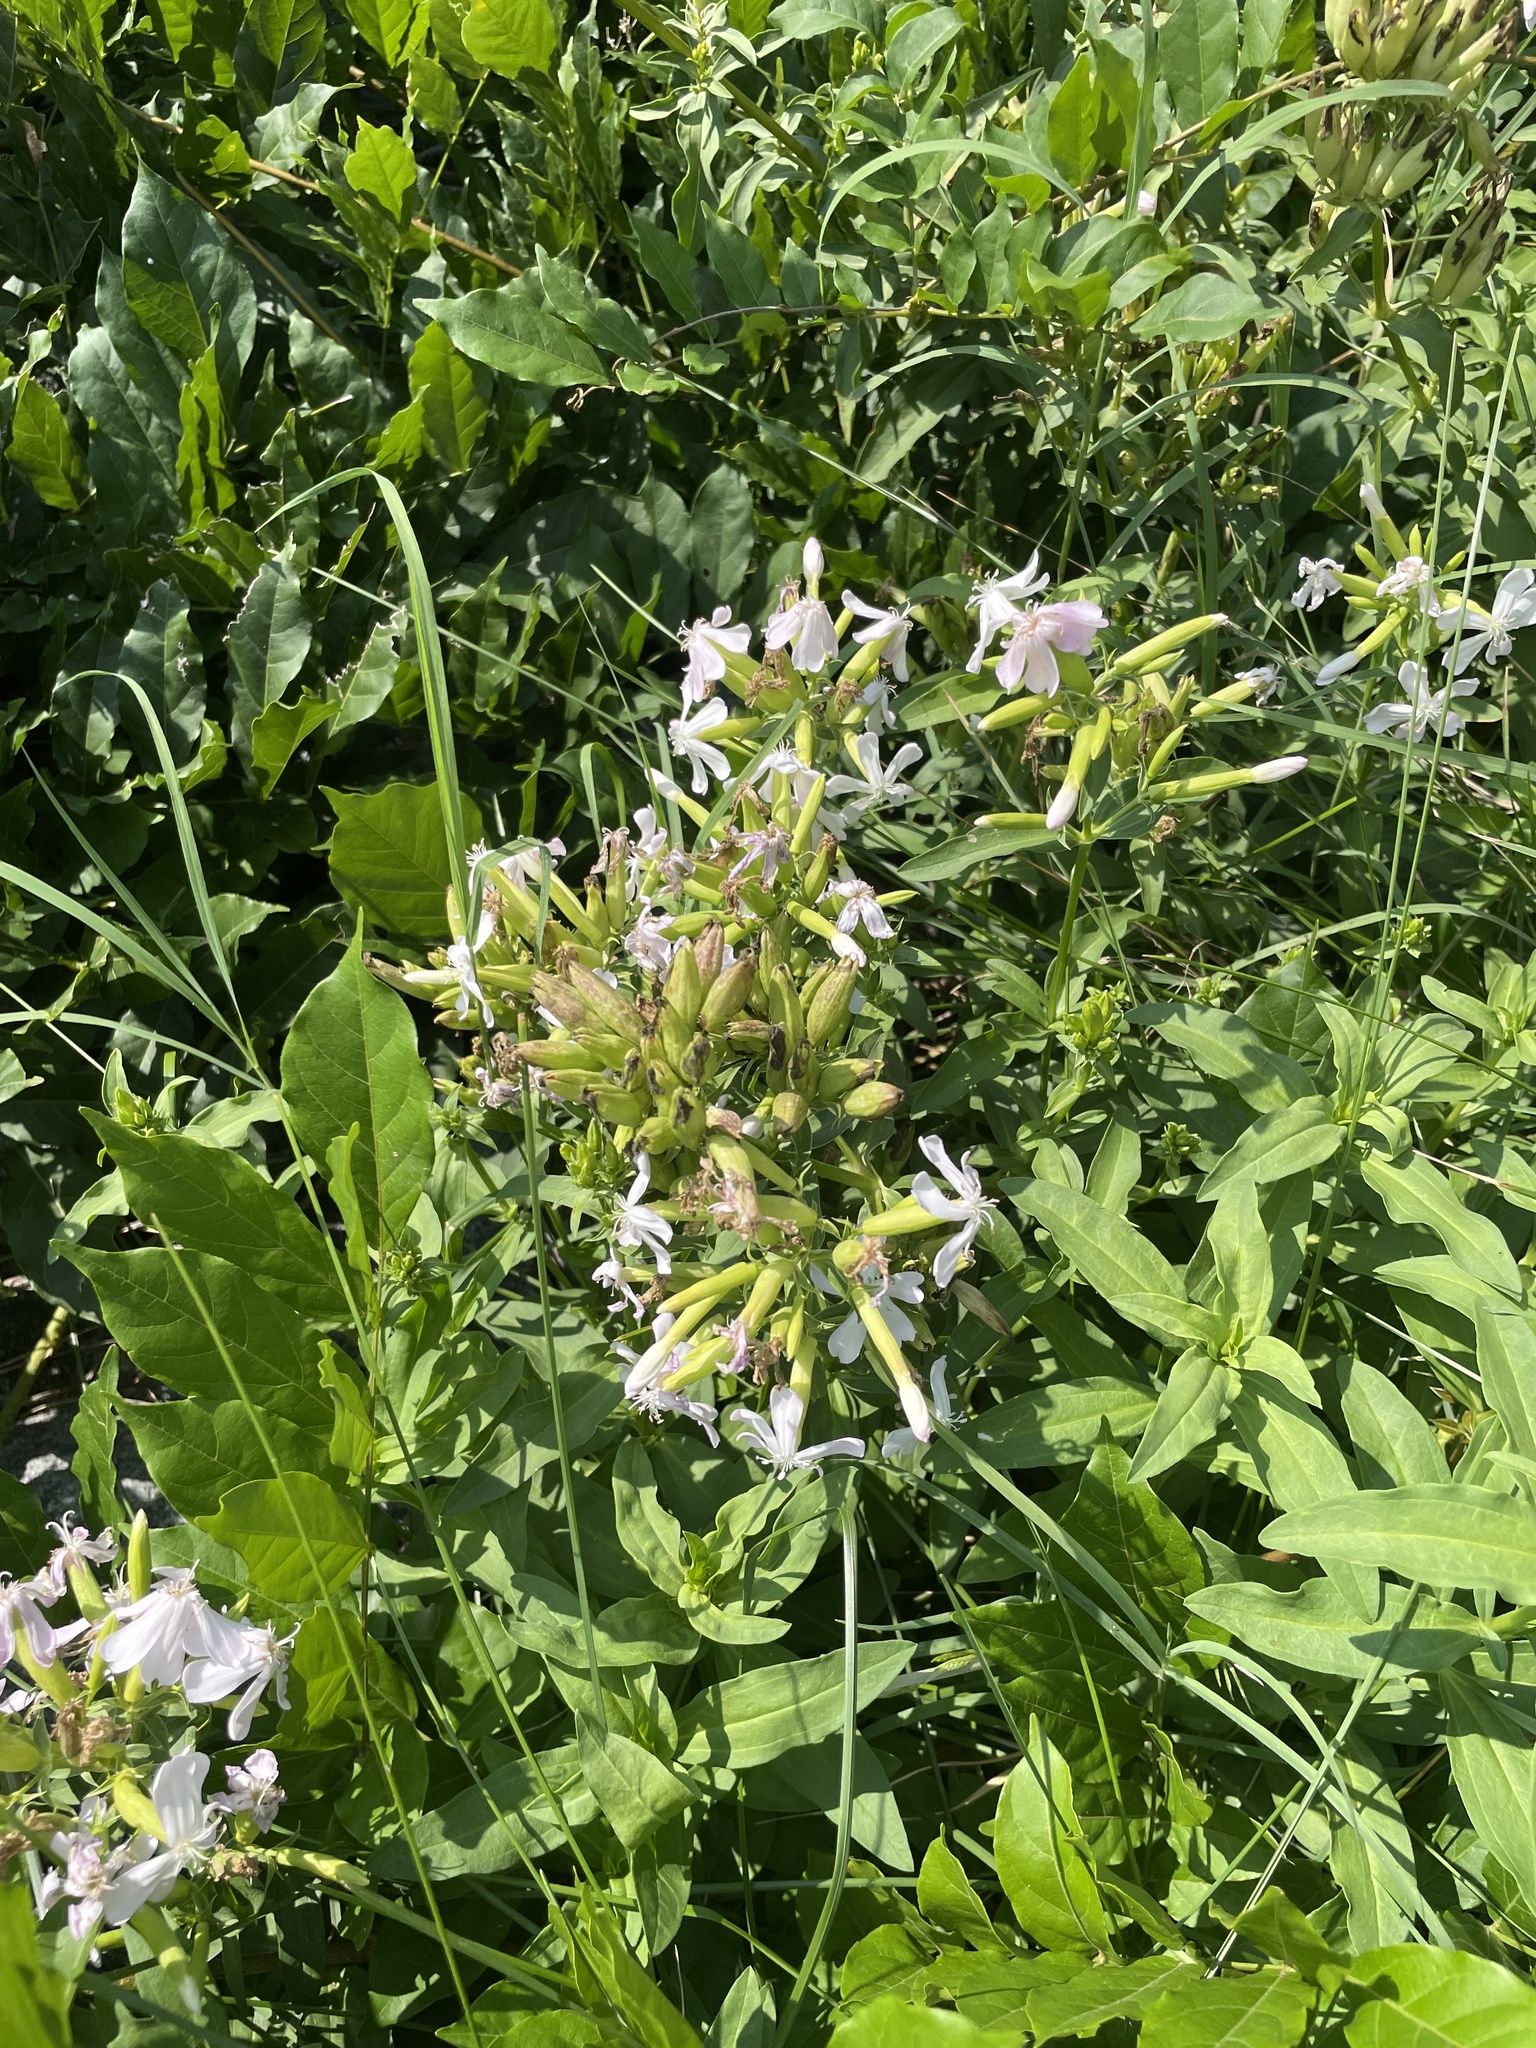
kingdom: Plantae
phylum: Tracheophyta
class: Magnoliopsida
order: Caryophyllales
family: Caryophyllaceae
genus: Saponaria
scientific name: Saponaria officinalis
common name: Soapwort
